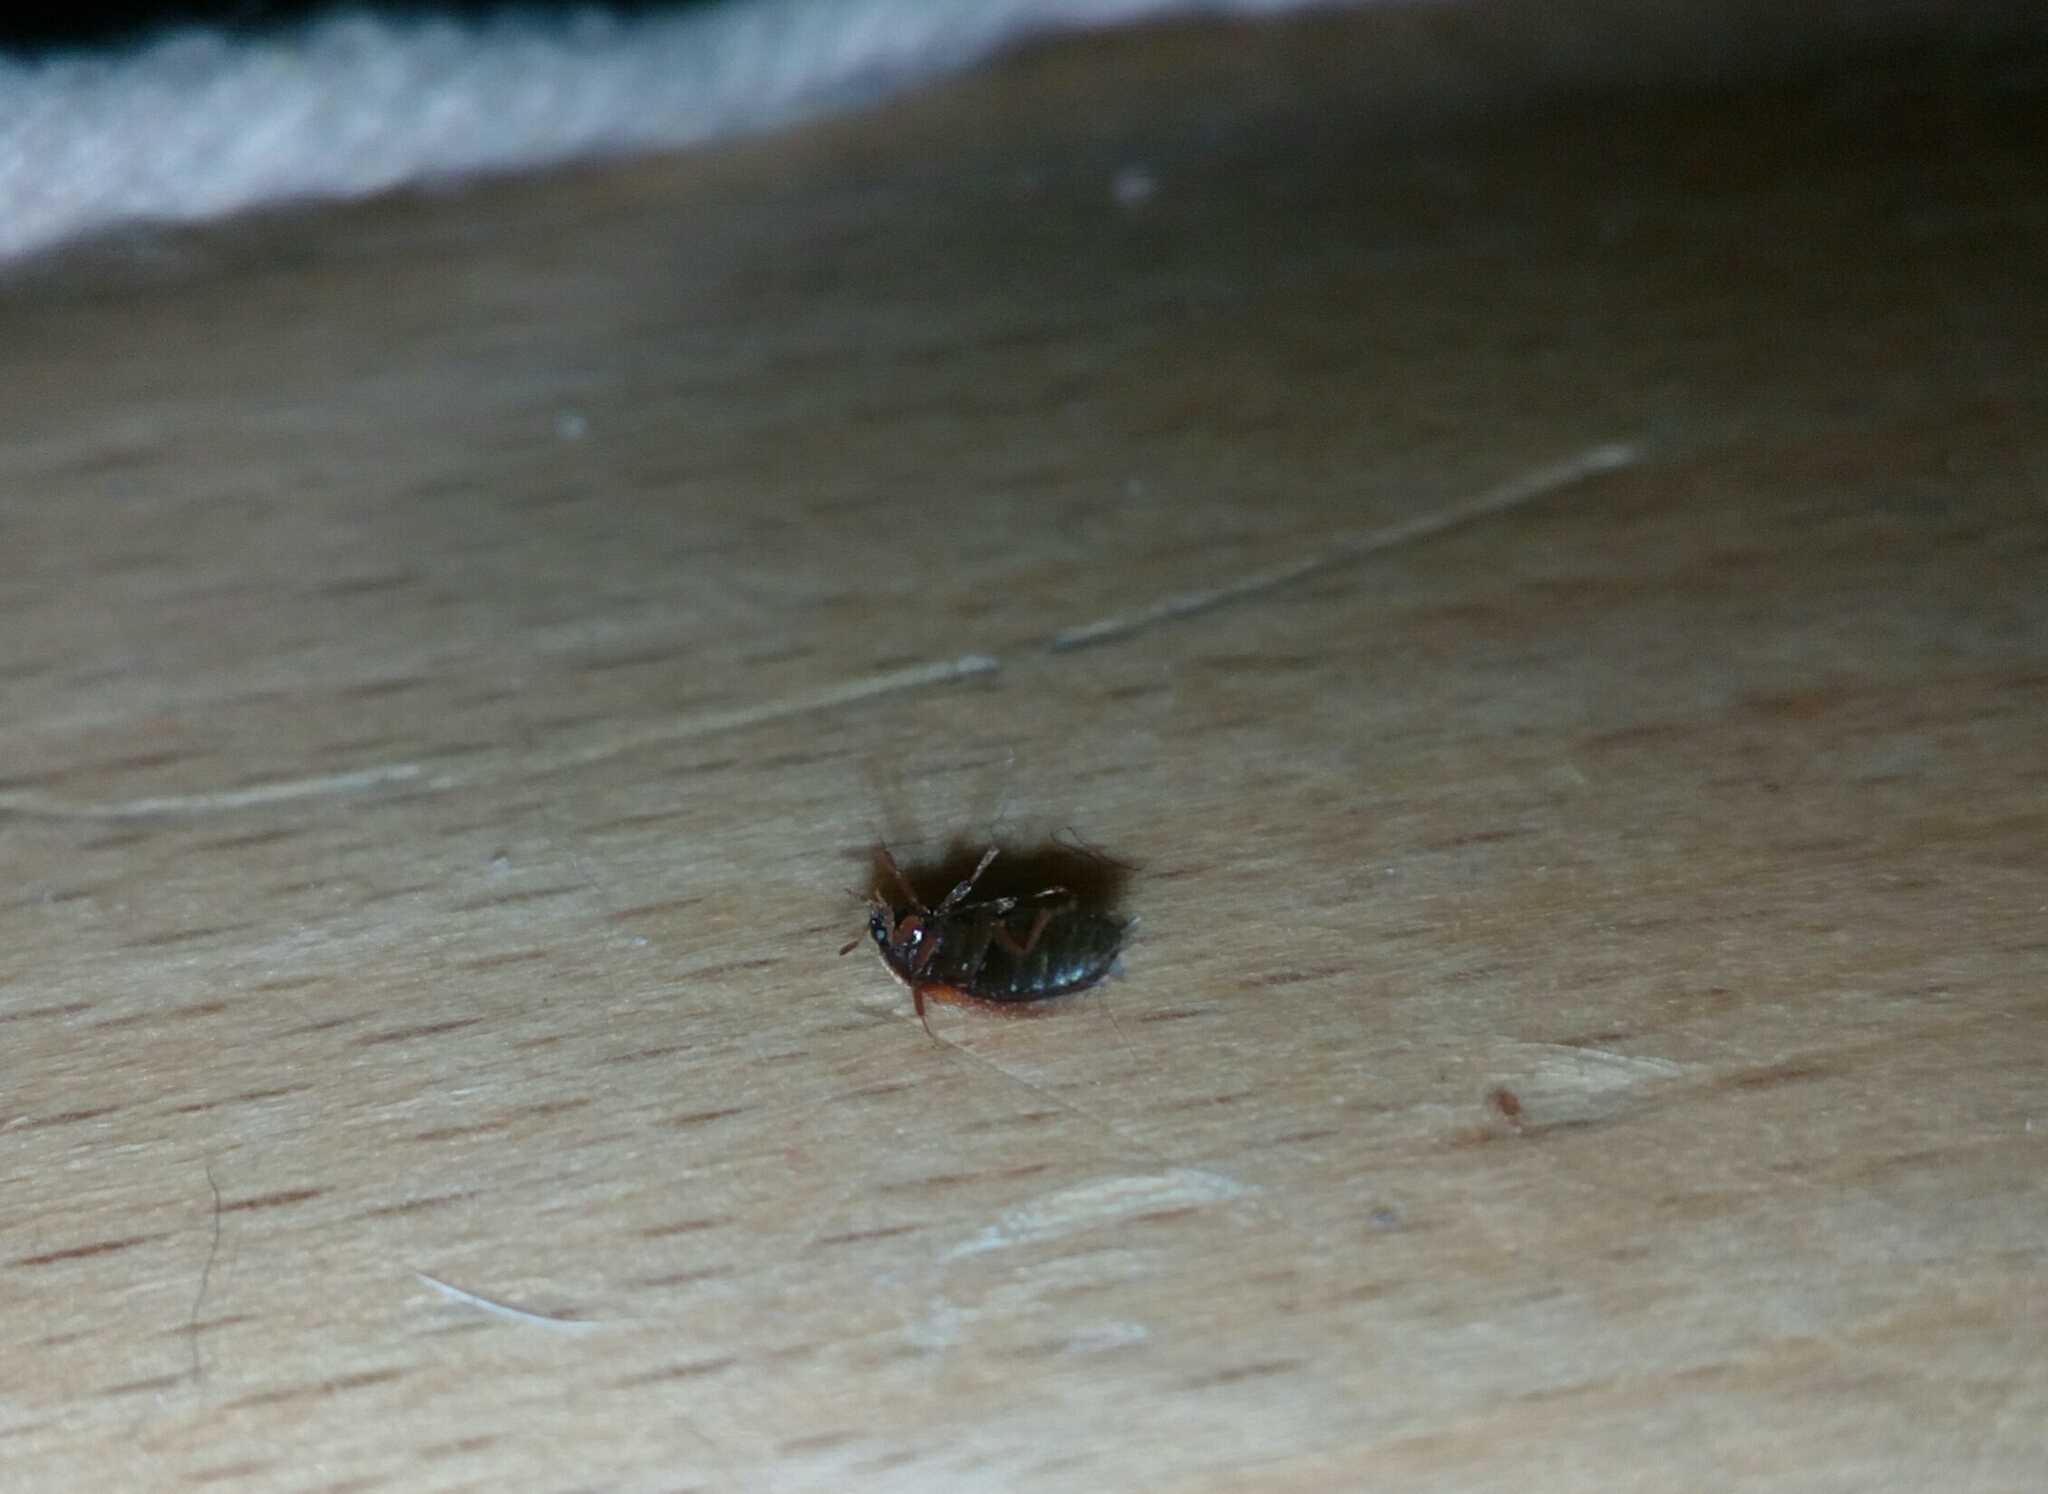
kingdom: Animalia
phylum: Arthropoda
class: Insecta
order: Coleoptera
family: Dermestidae
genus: Attagenus
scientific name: Attagenus smirnovi
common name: Brown carpet beetle
